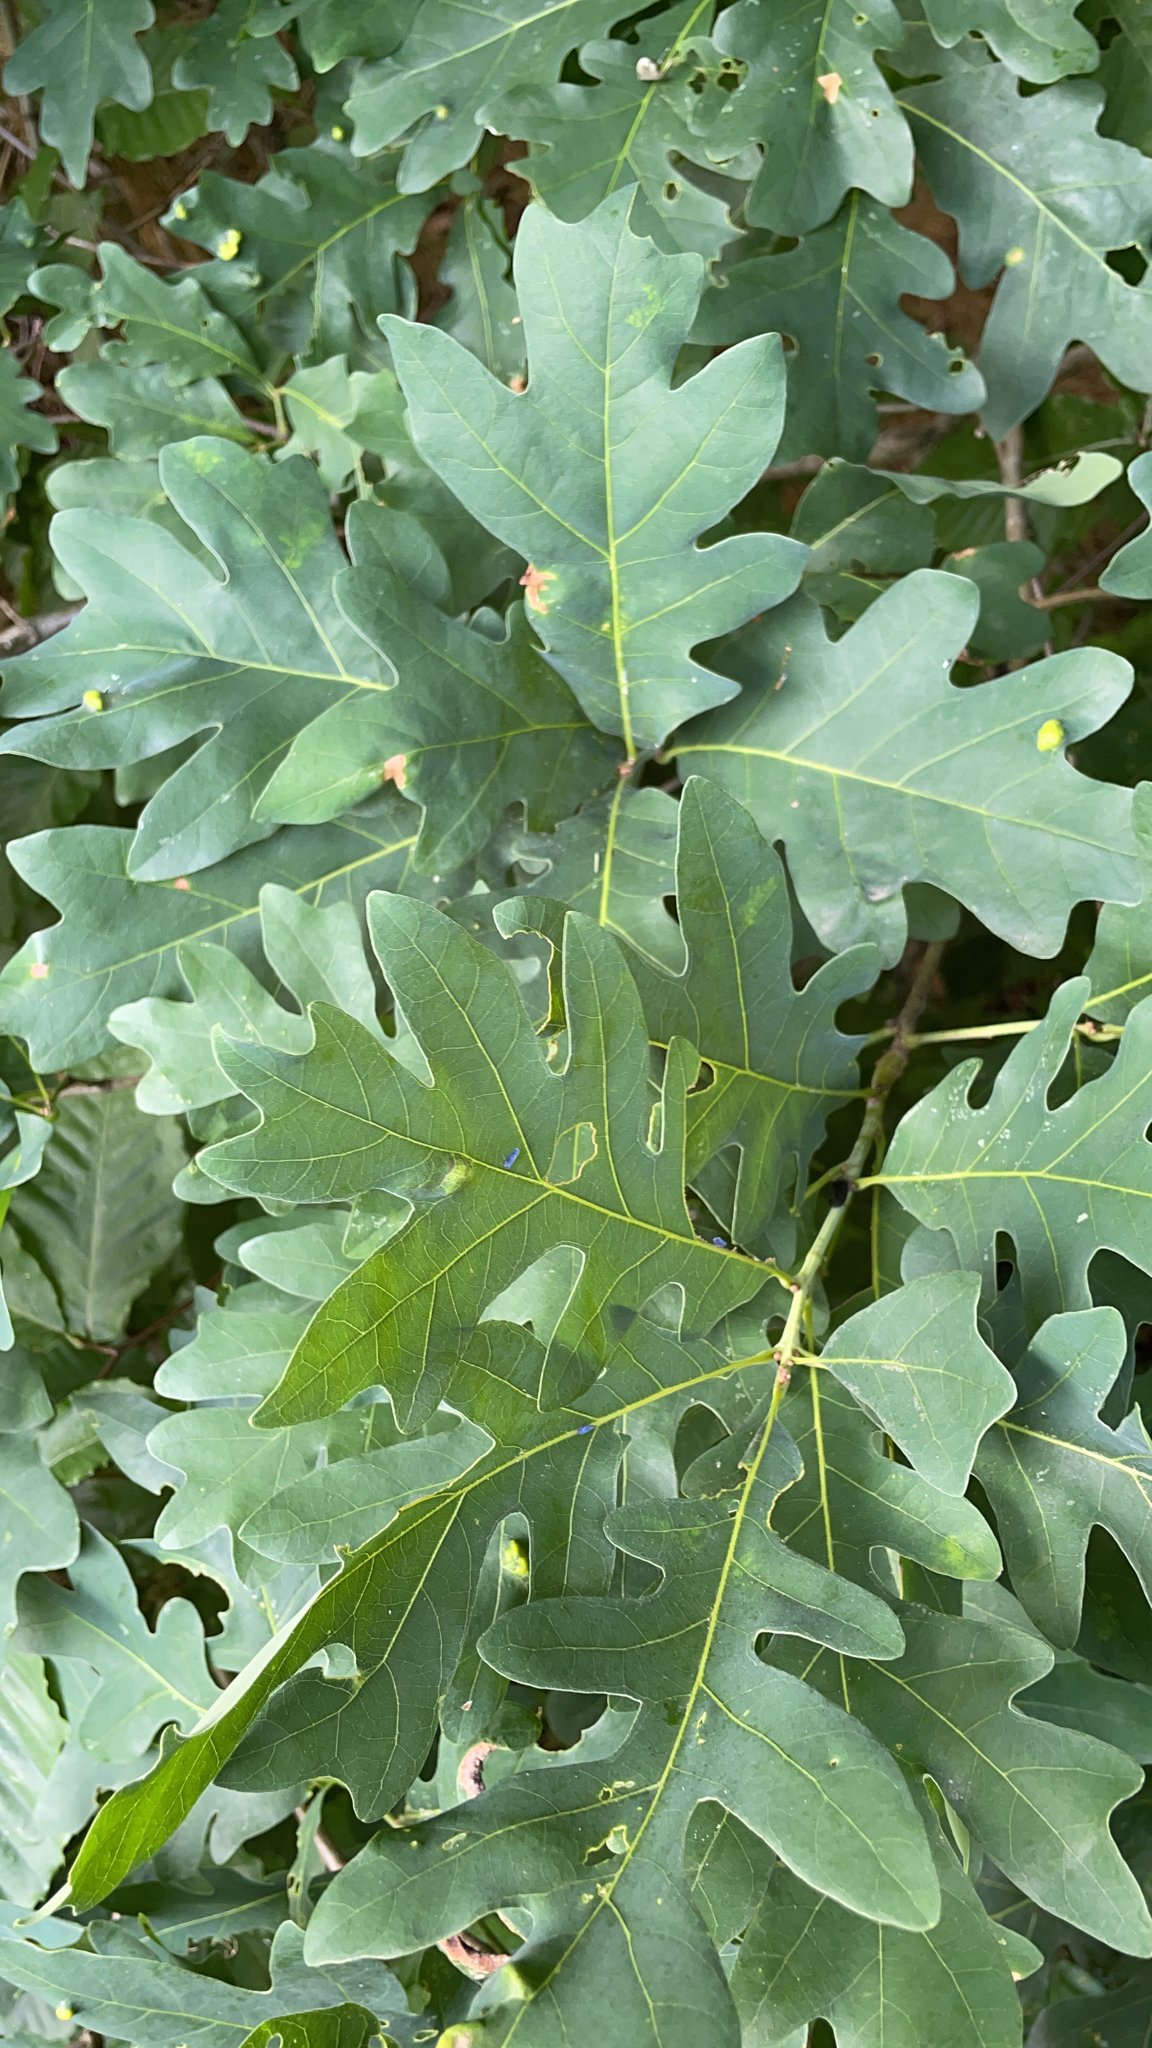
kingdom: Plantae
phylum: Tracheophyta
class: Magnoliopsida
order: Fagales
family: Fagaceae
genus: Quercus
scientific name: Quercus alba
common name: White oak
